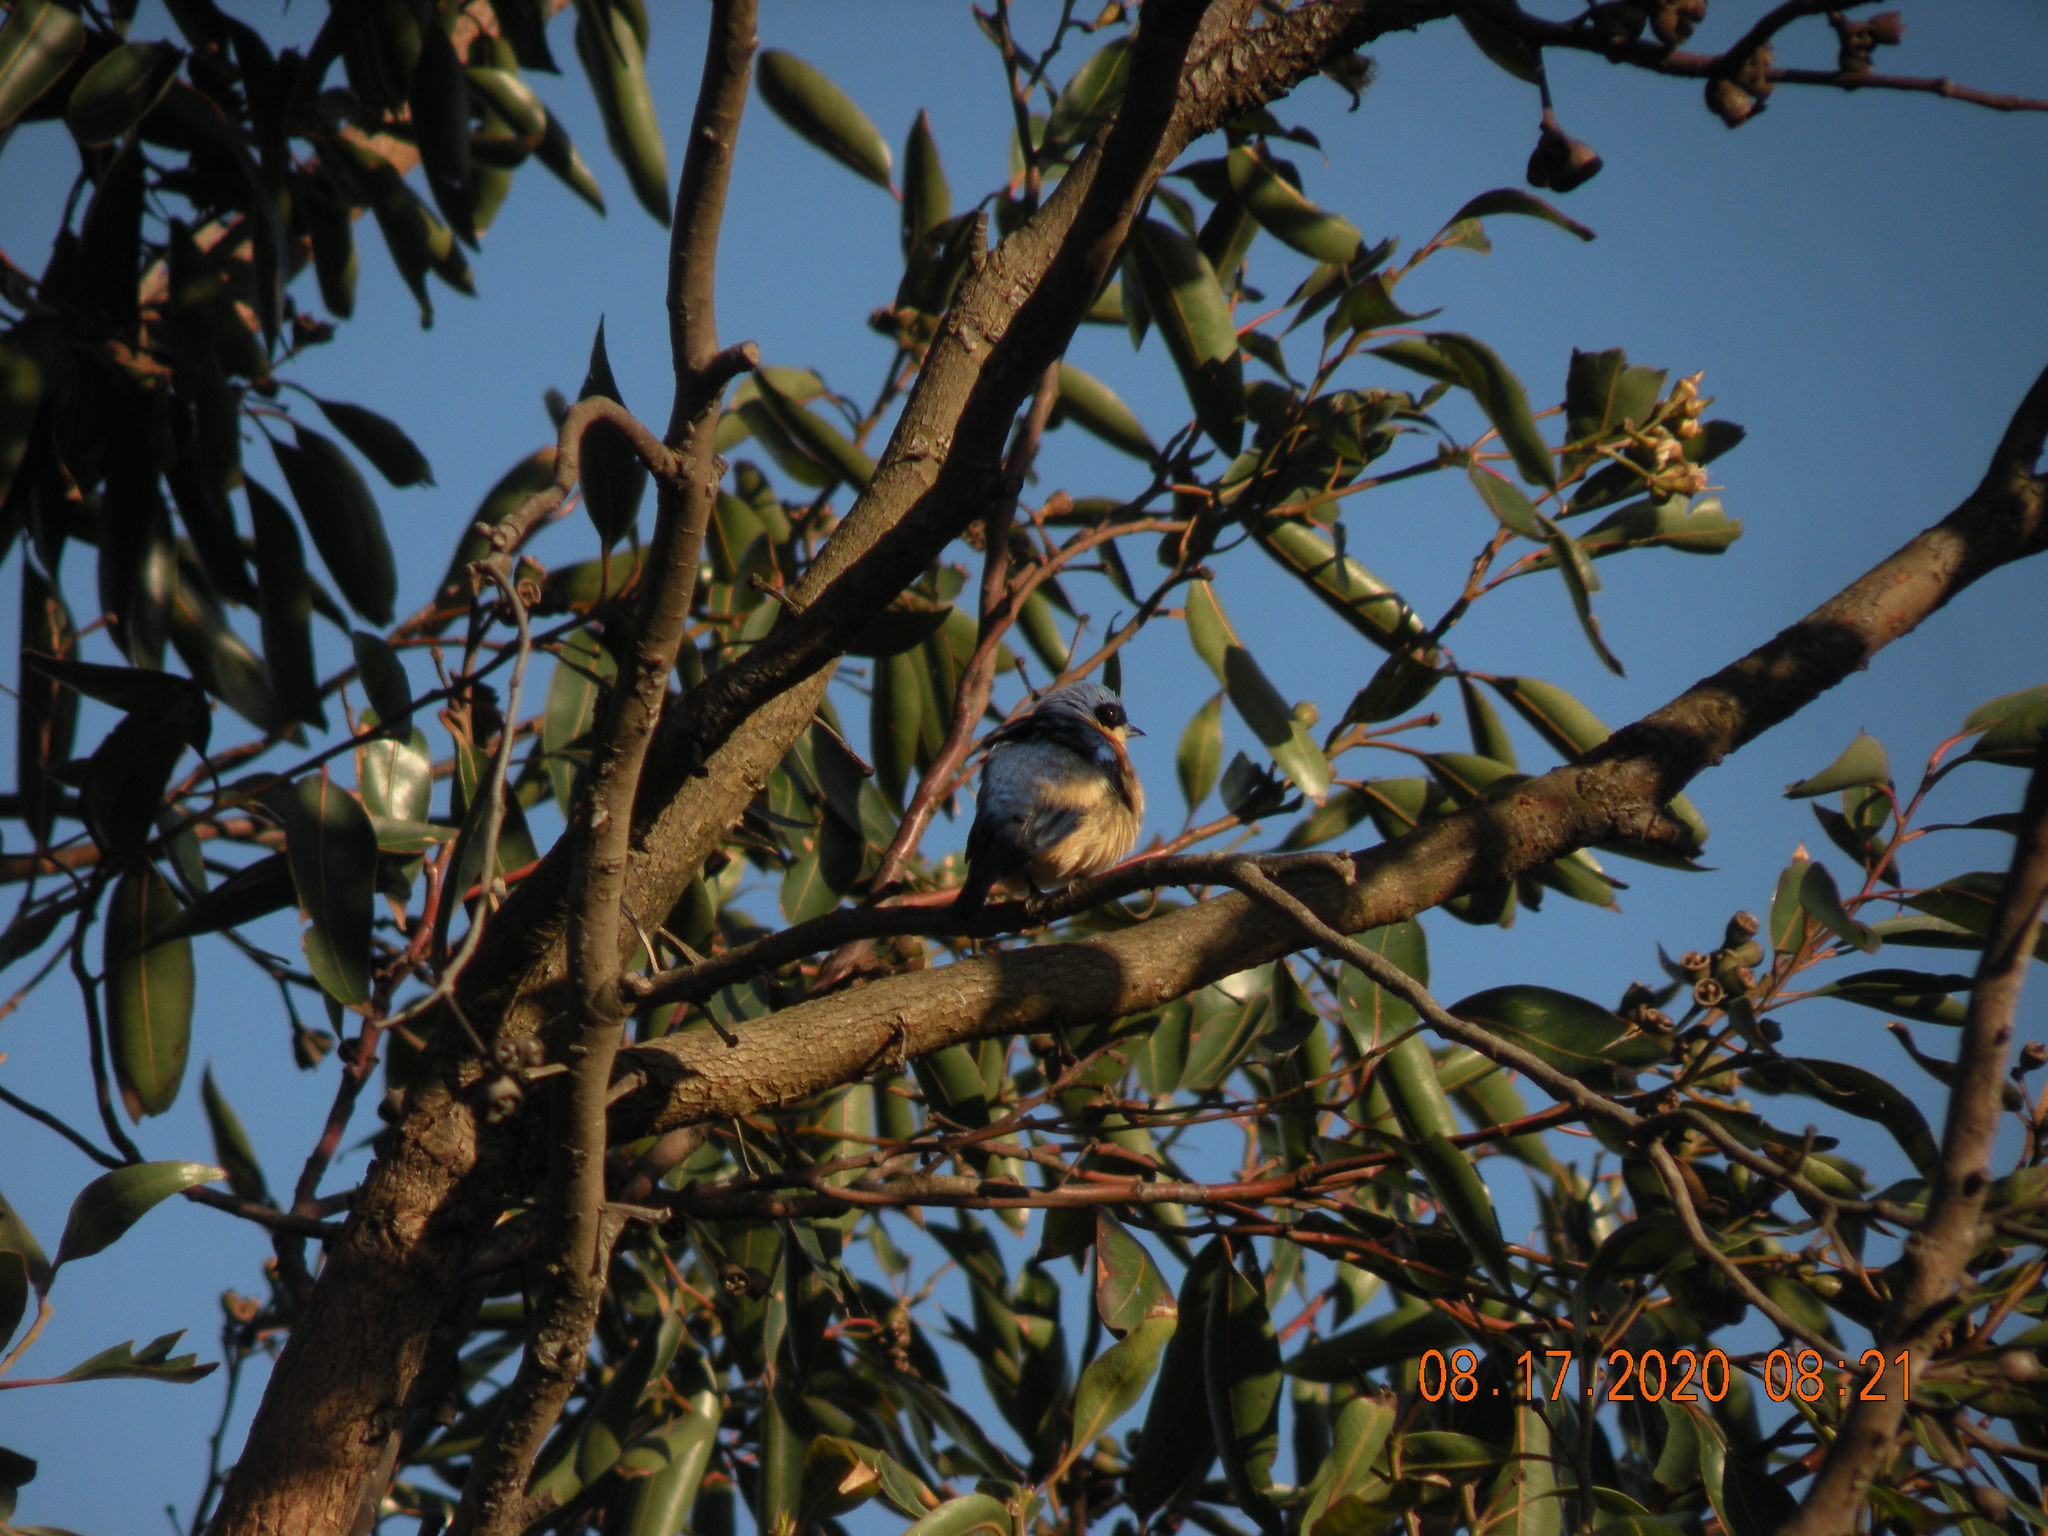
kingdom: Animalia
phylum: Chordata
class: Aves
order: Passeriformes
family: Thraupidae
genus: Pipraeidea
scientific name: Pipraeidea melanonota
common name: Fawn-breasted tanager
